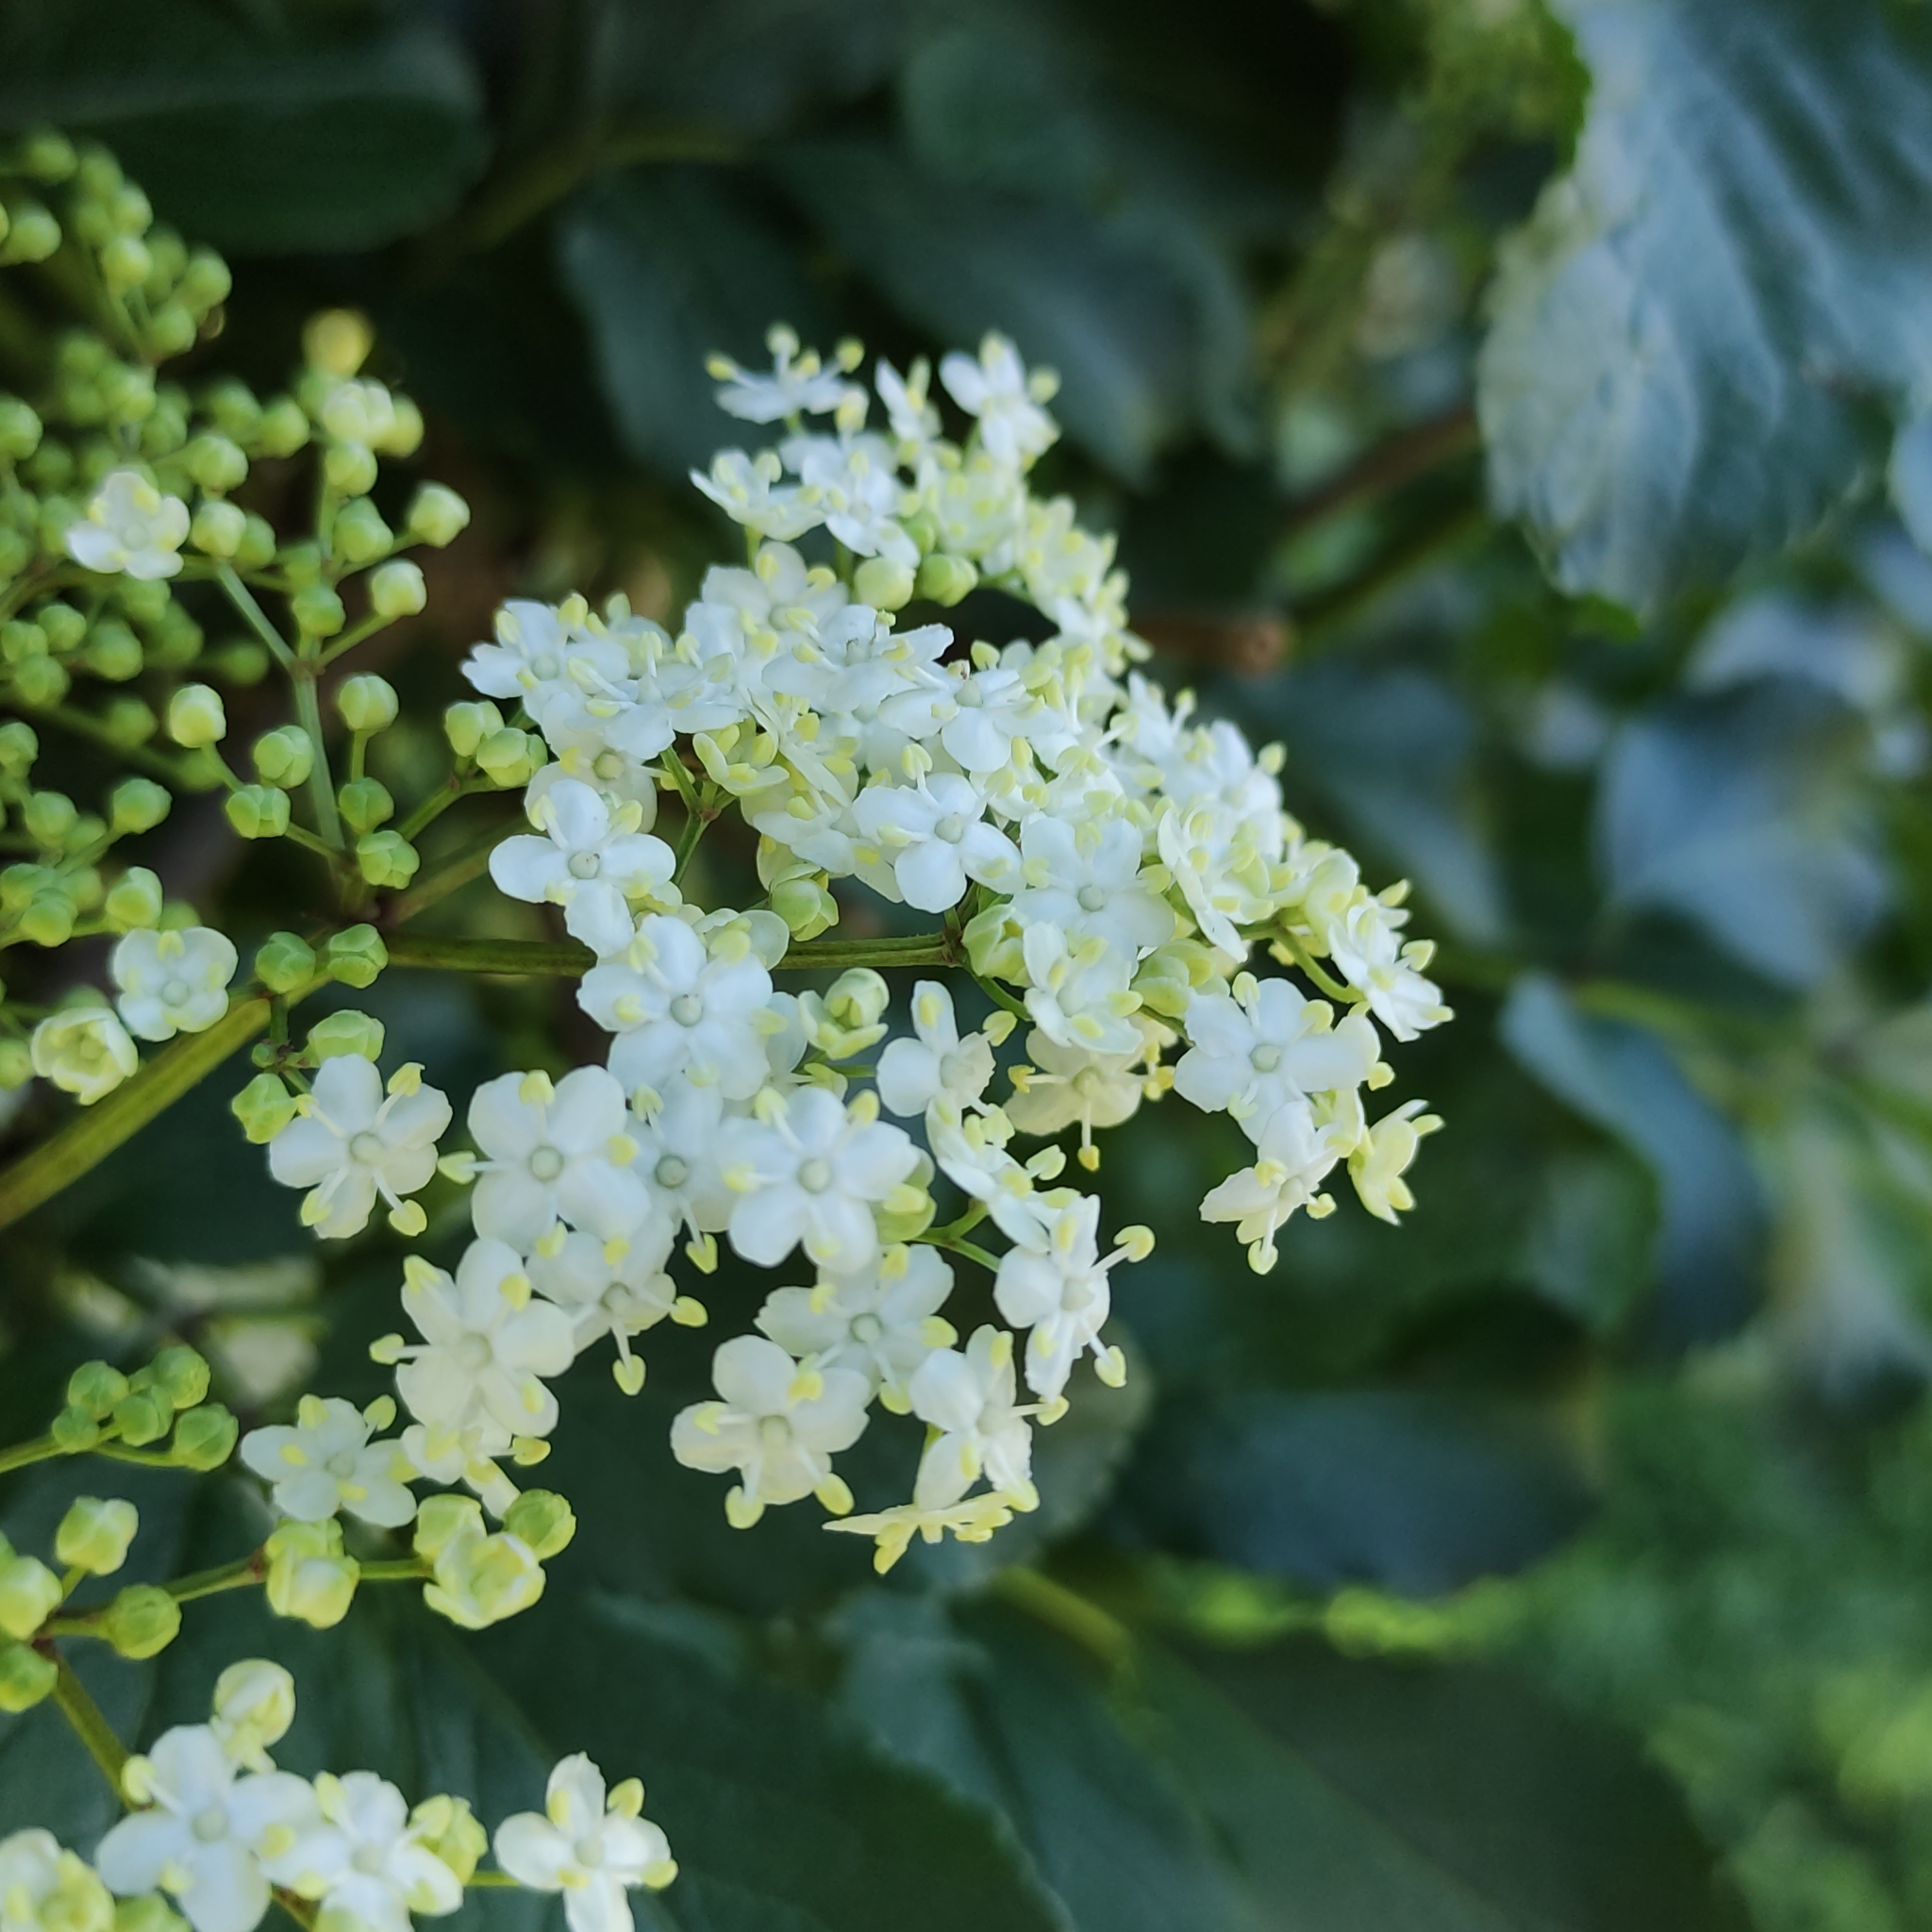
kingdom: Plantae
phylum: Tracheophyta
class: Magnoliopsida
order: Dipsacales
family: Viburnaceae
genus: Sambucus
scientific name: Sambucus nigra
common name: Elder
